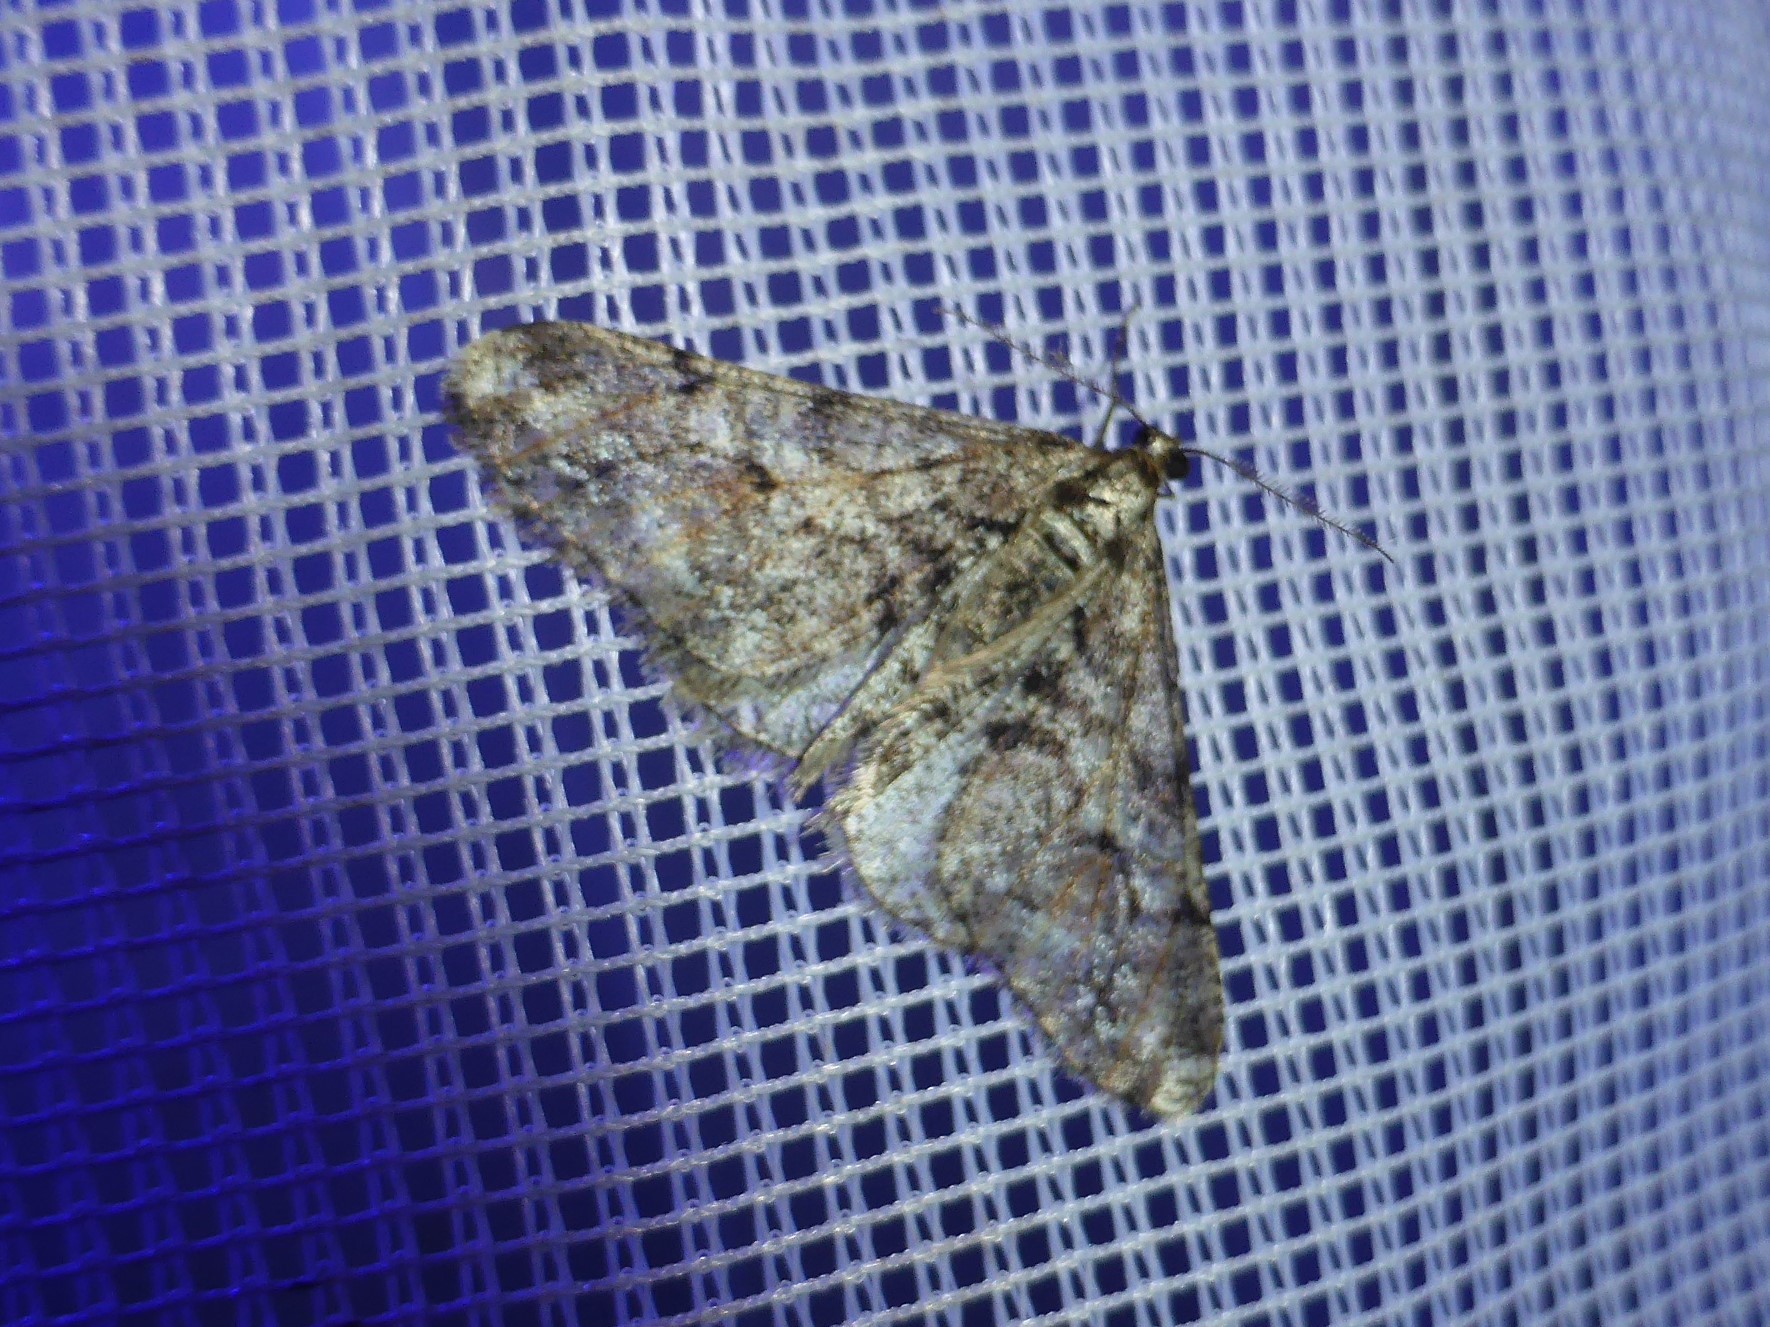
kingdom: Animalia
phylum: Arthropoda
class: Insecta
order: Lepidoptera
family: Geometridae
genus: Agriopis
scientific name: Agriopis leucophaearia
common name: Spring usher
